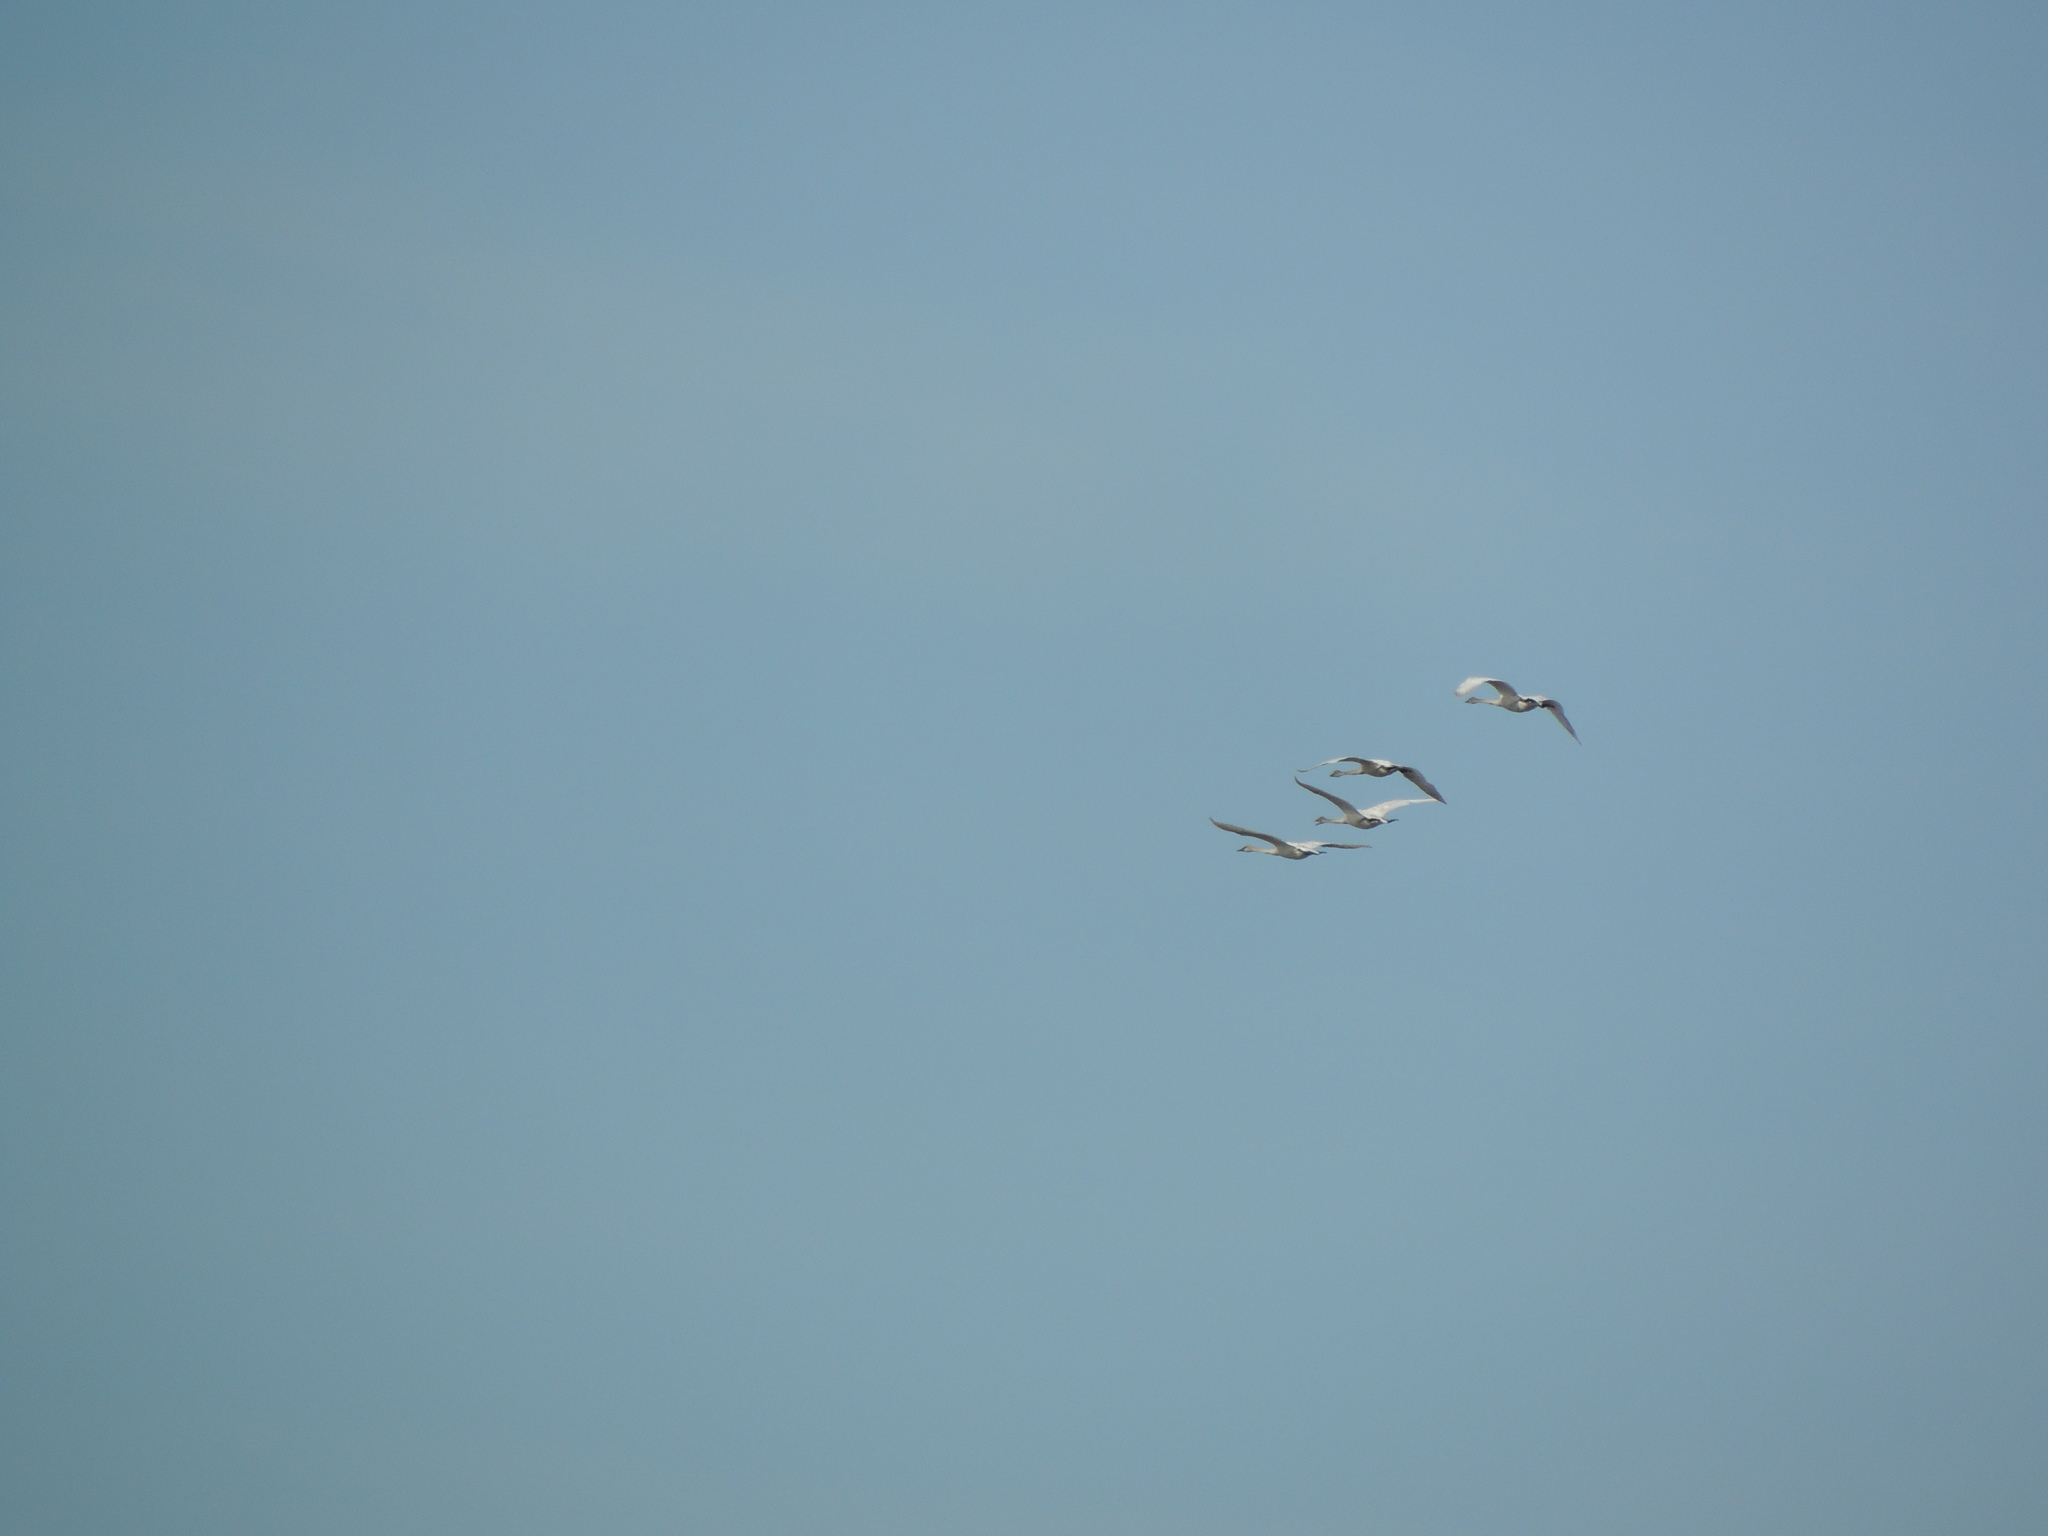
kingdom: Animalia
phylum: Chordata
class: Aves
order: Anseriformes
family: Anatidae
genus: Cygnus
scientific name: Cygnus buccinator
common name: Trumpeter swan
